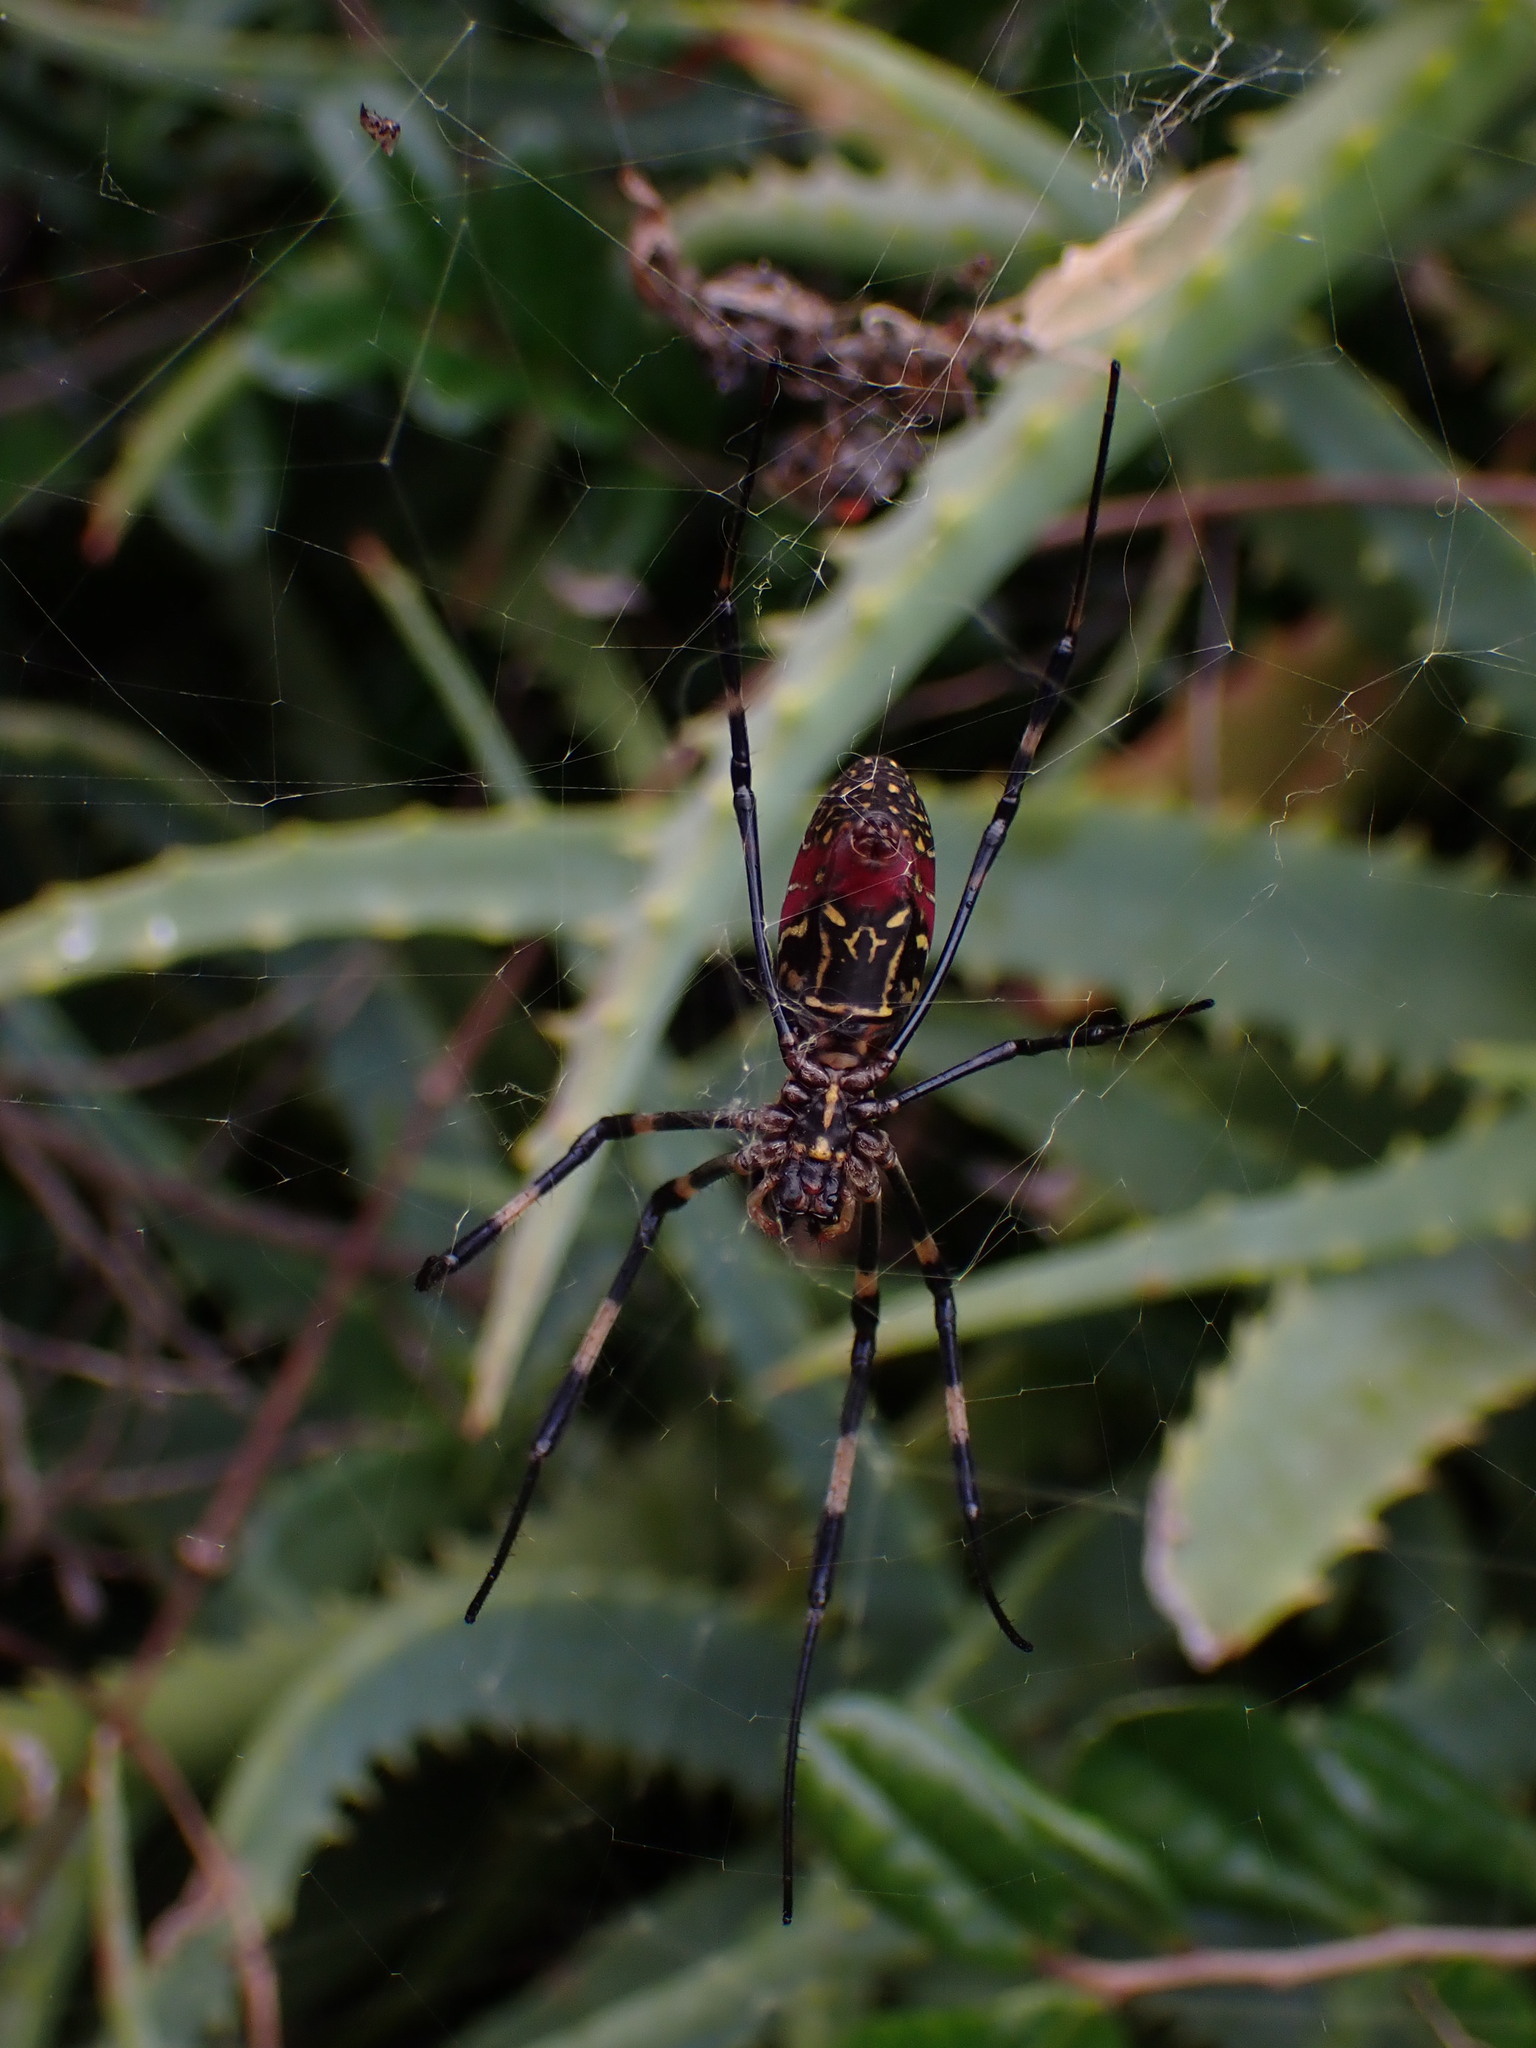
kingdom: Animalia
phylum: Arthropoda
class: Arachnida
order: Araneae
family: Araneidae
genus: Trichonephila
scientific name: Trichonephila clavata
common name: Jorō spider
